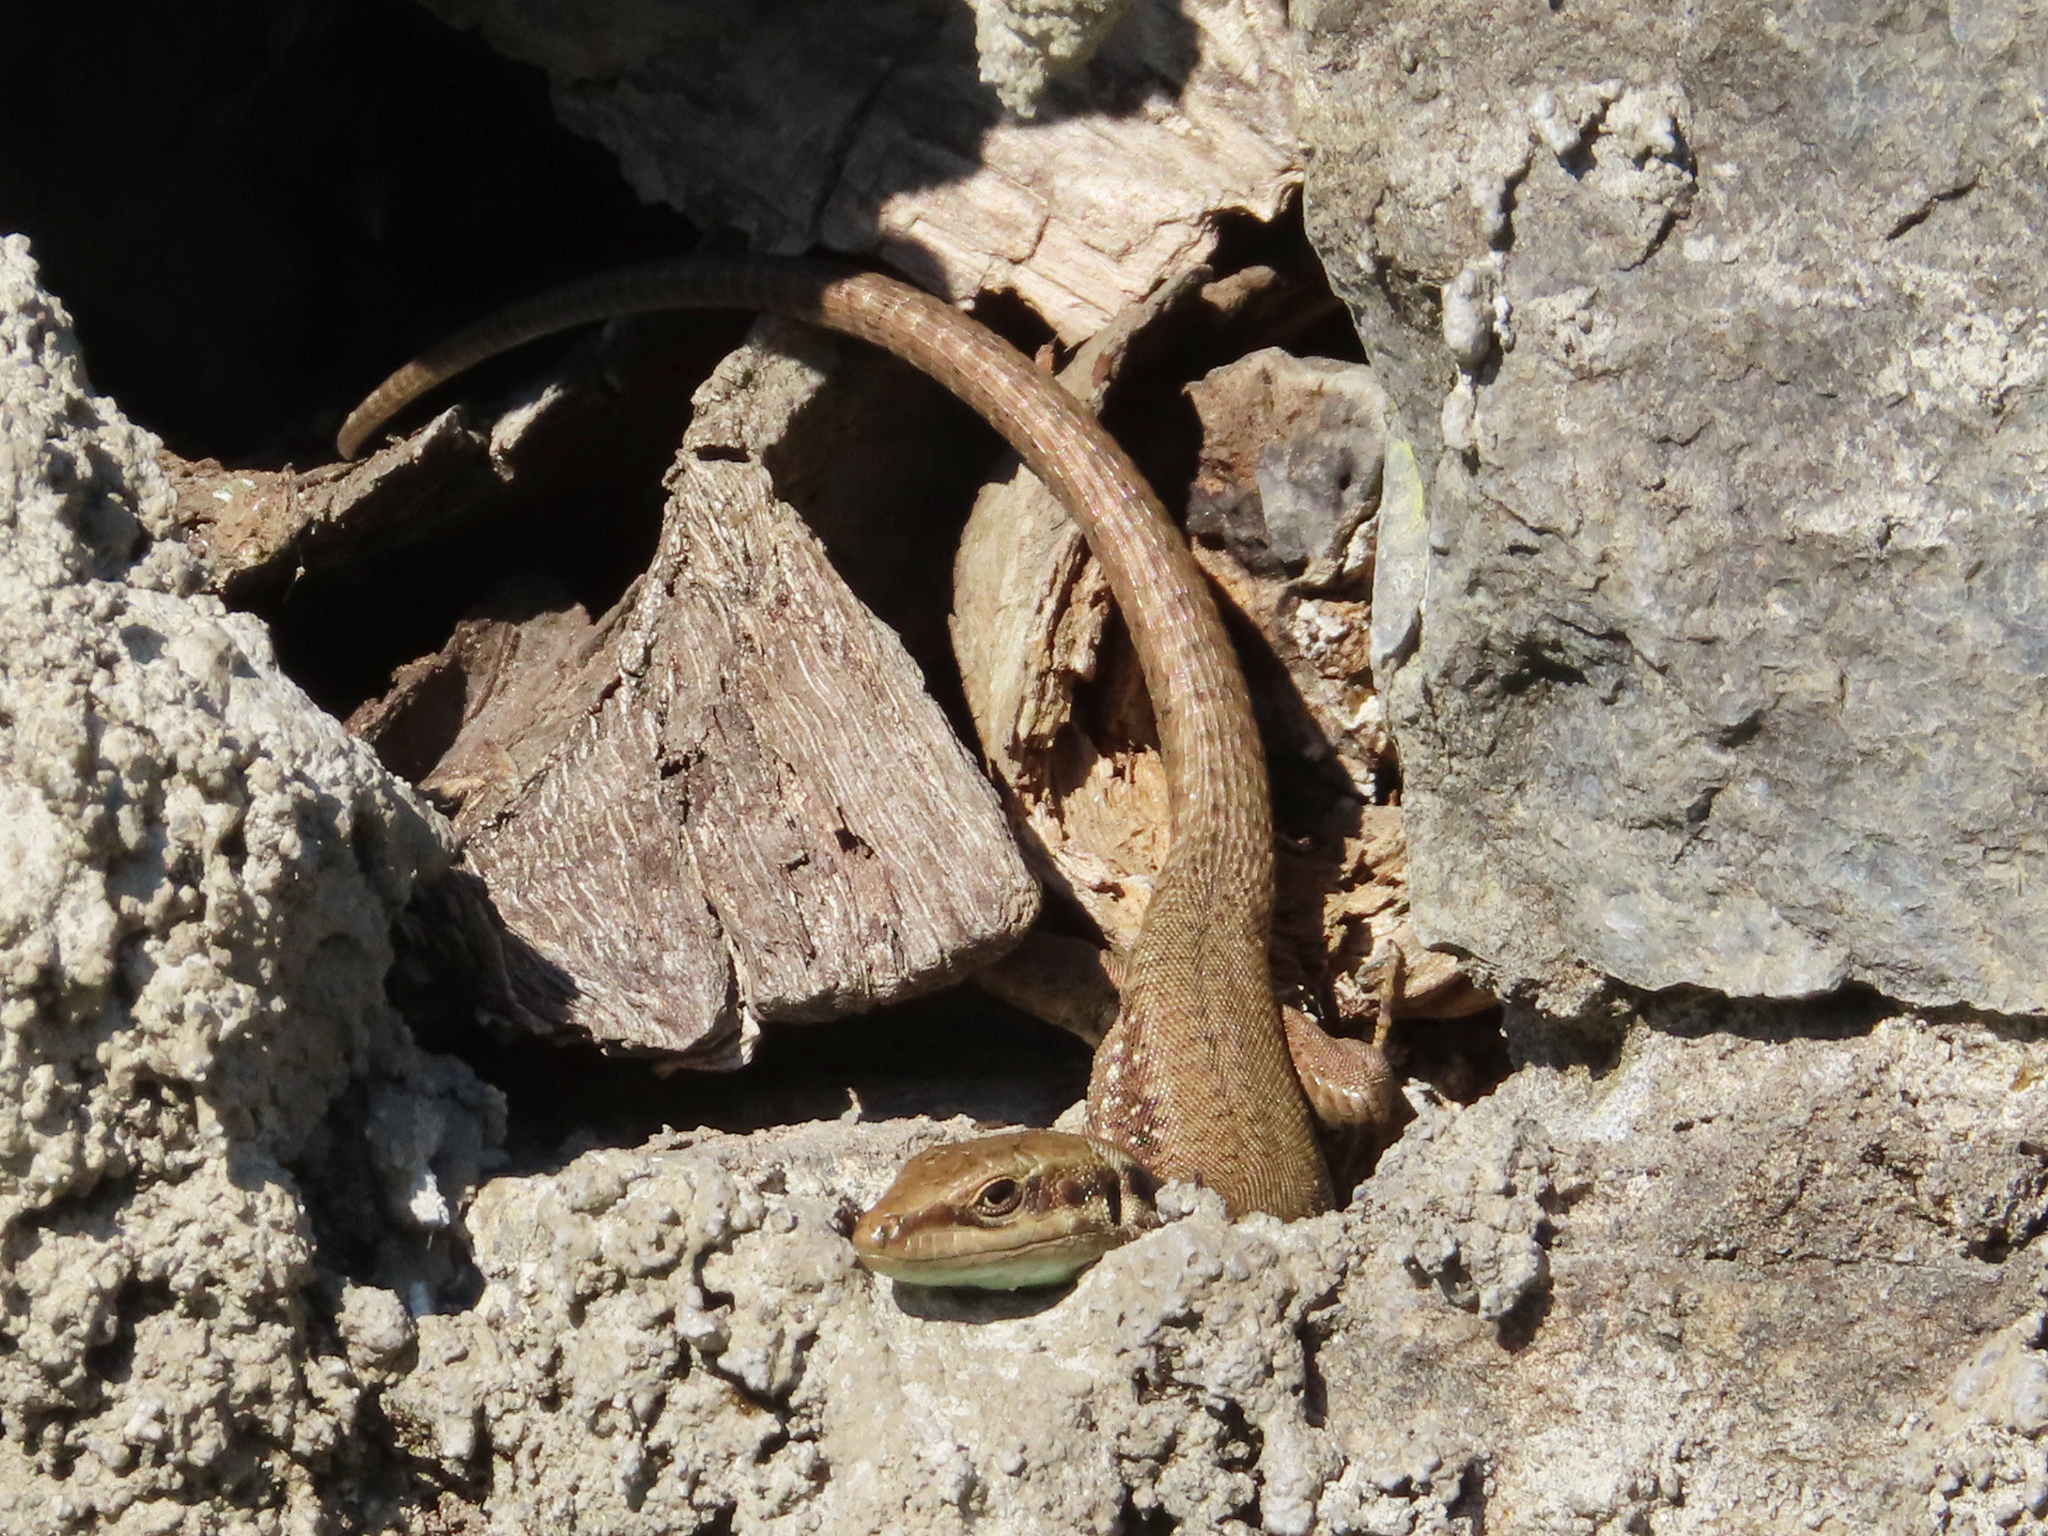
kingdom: Animalia
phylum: Chordata
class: Squamata
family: Lacertidae
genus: Phoenicolacerta
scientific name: Phoenicolacerta laevis
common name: Lebanon lizard
